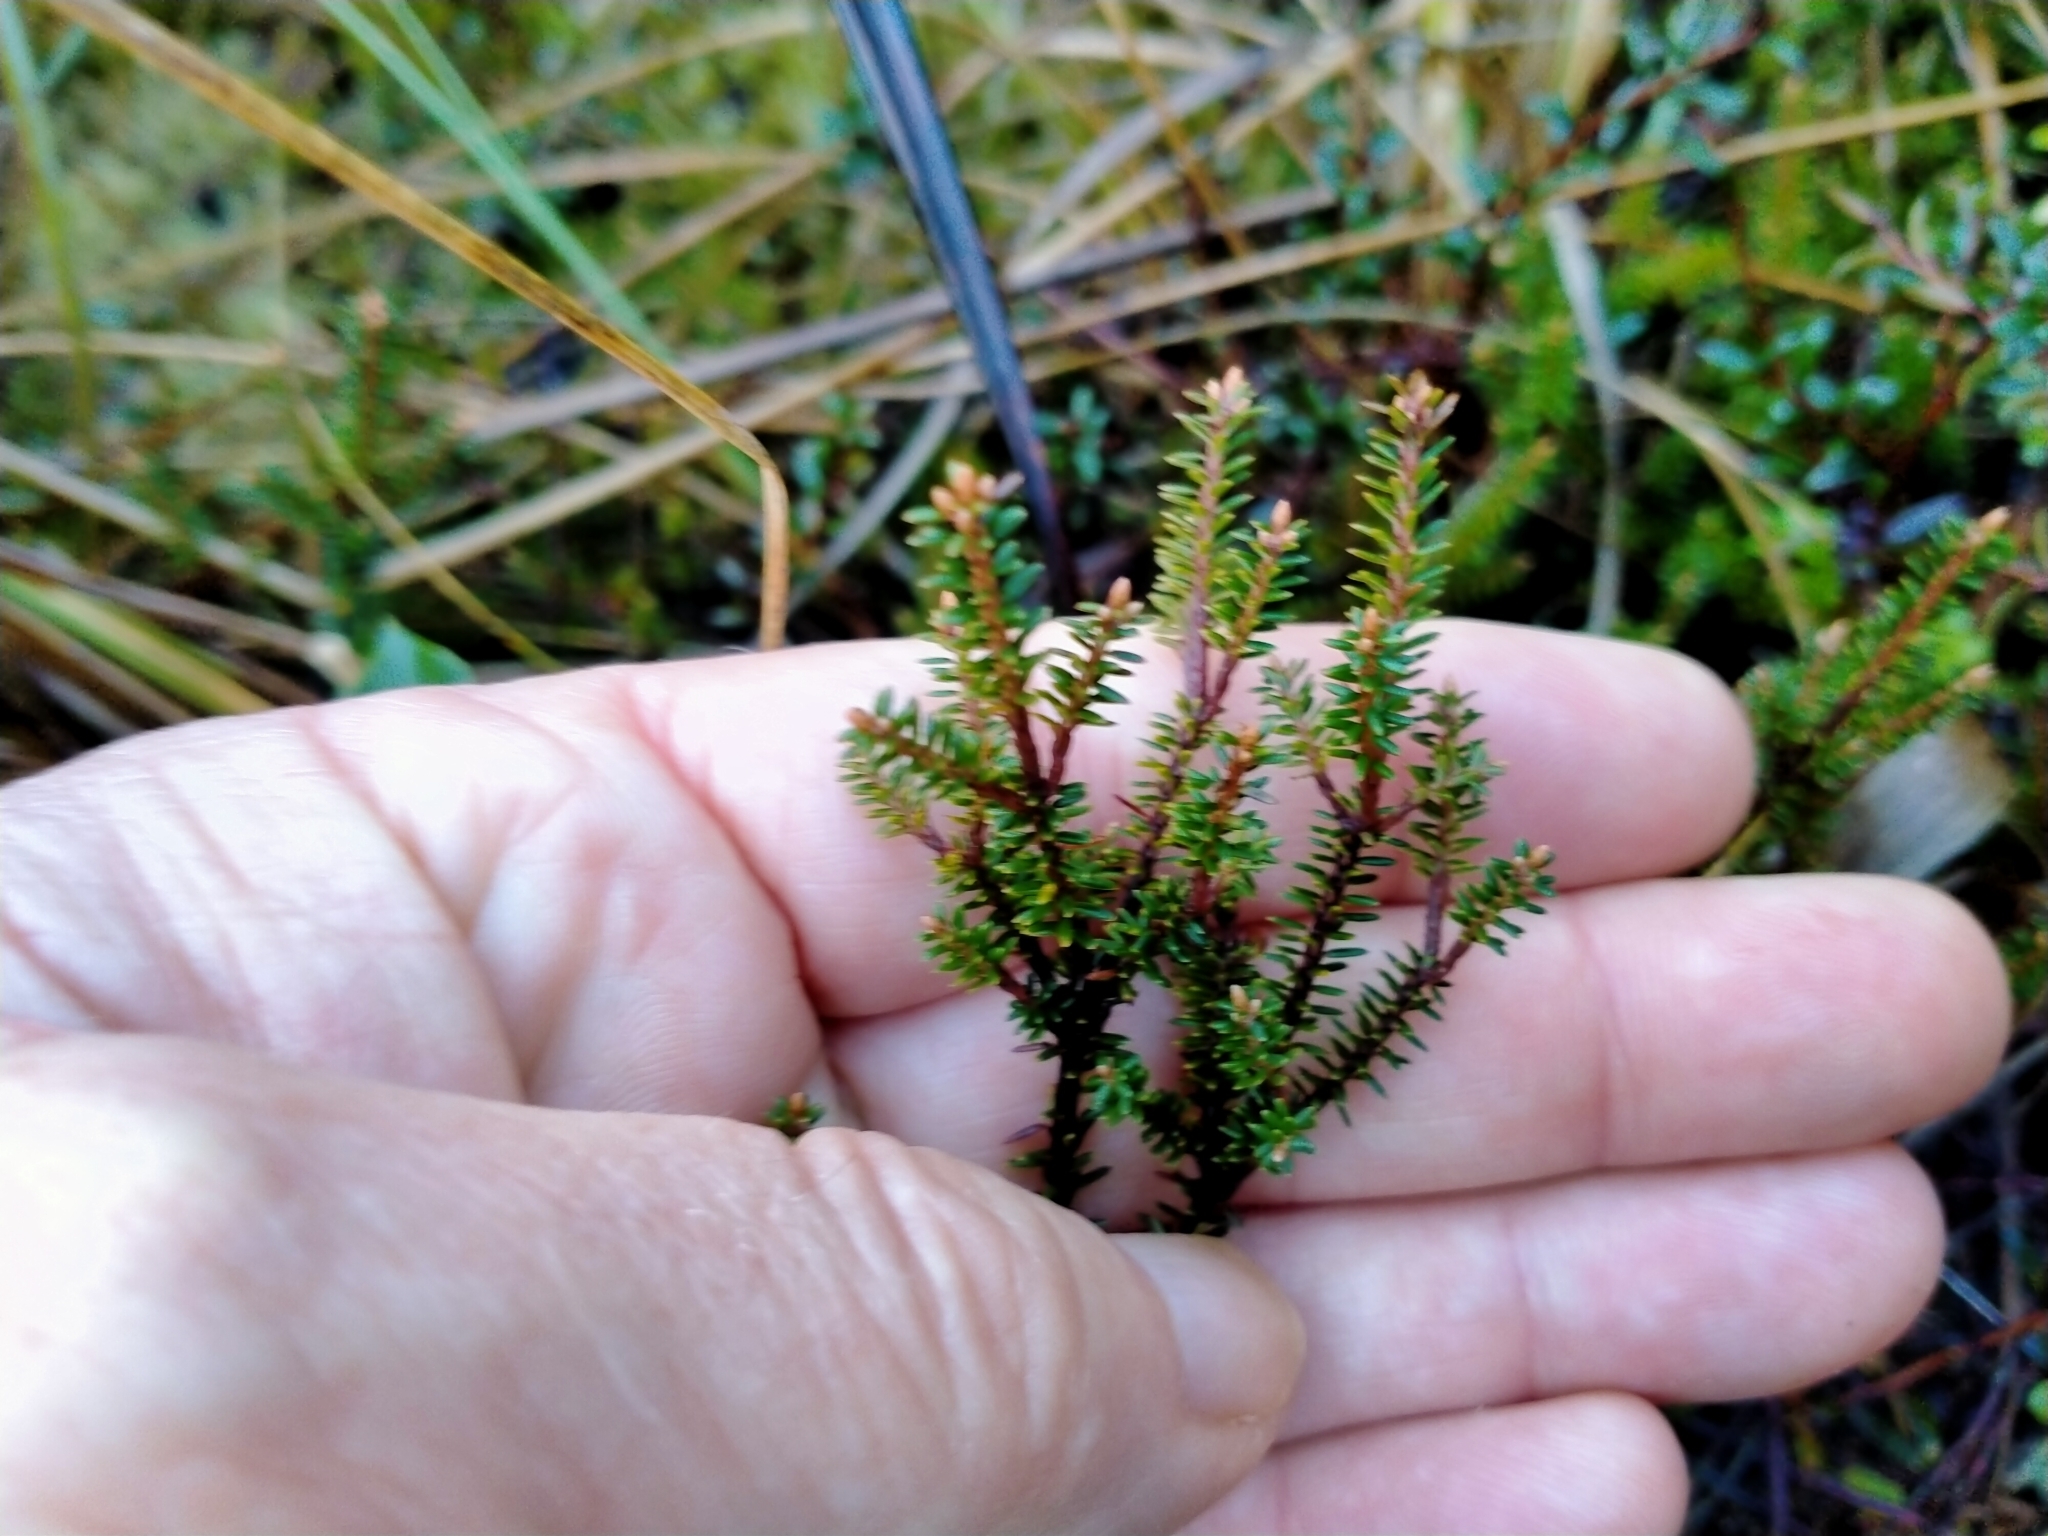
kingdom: Plantae
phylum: Tracheophyta
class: Magnoliopsida
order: Ericales
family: Ericaceae
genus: Androstoma
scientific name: Androstoma empetrifolia
